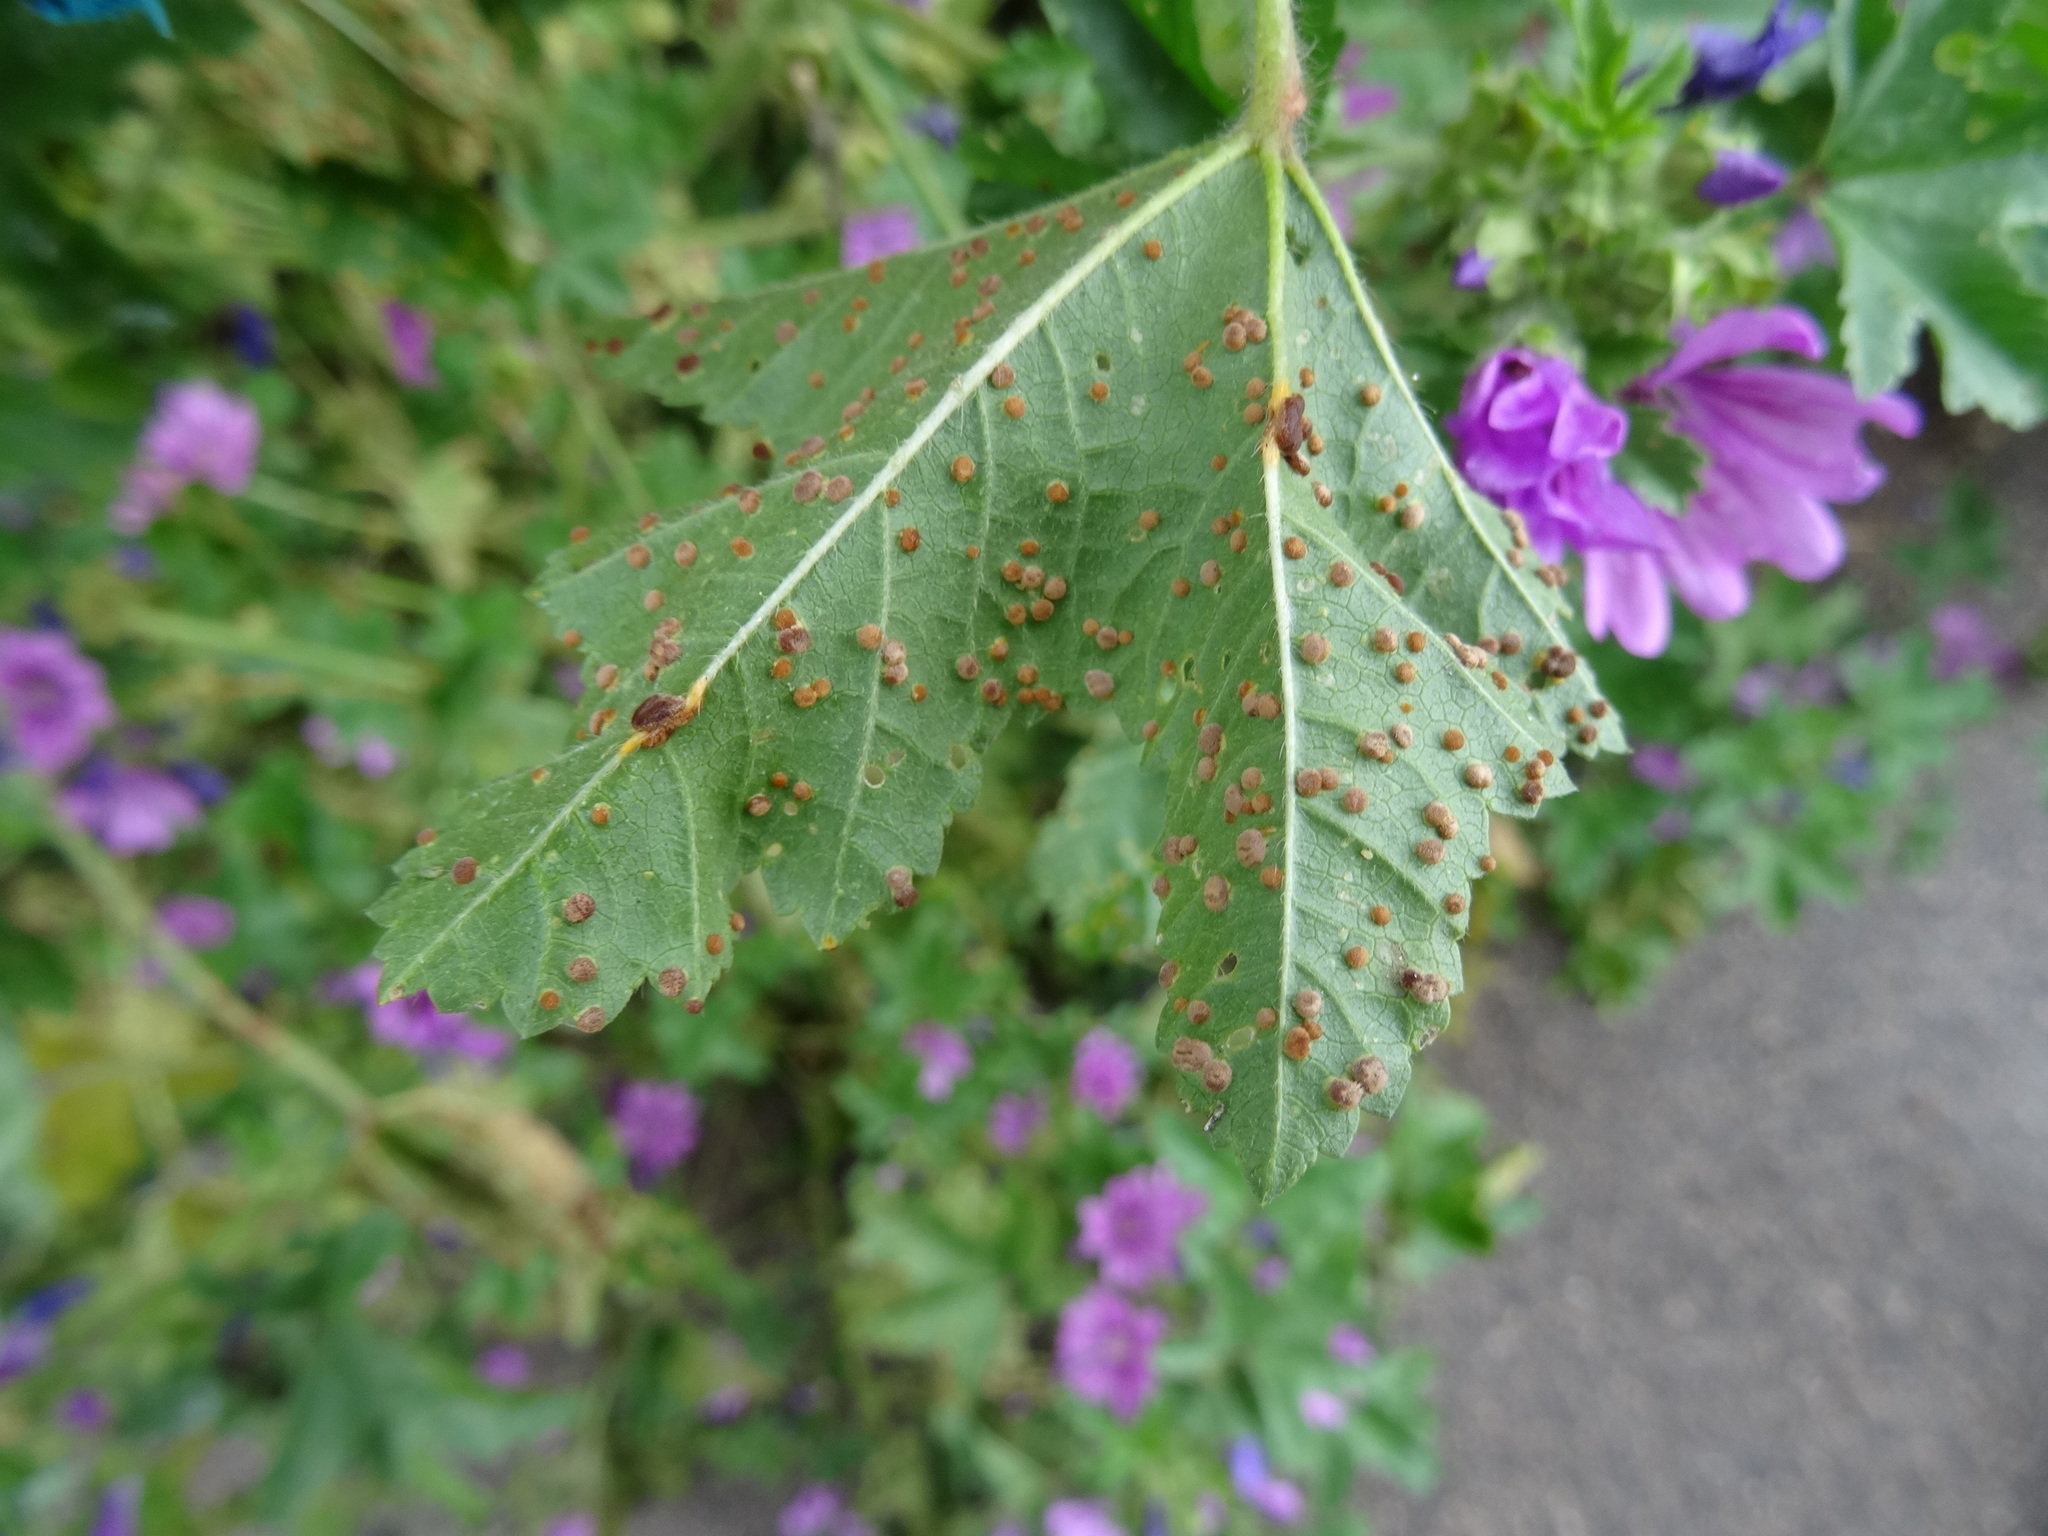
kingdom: Fungi
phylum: Basidiomycota
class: Pucciniomycetes
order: Pucciniales
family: Pucciniaceae
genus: Puccinia
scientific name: Puccinia malvacearum
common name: Hollyhock rust
